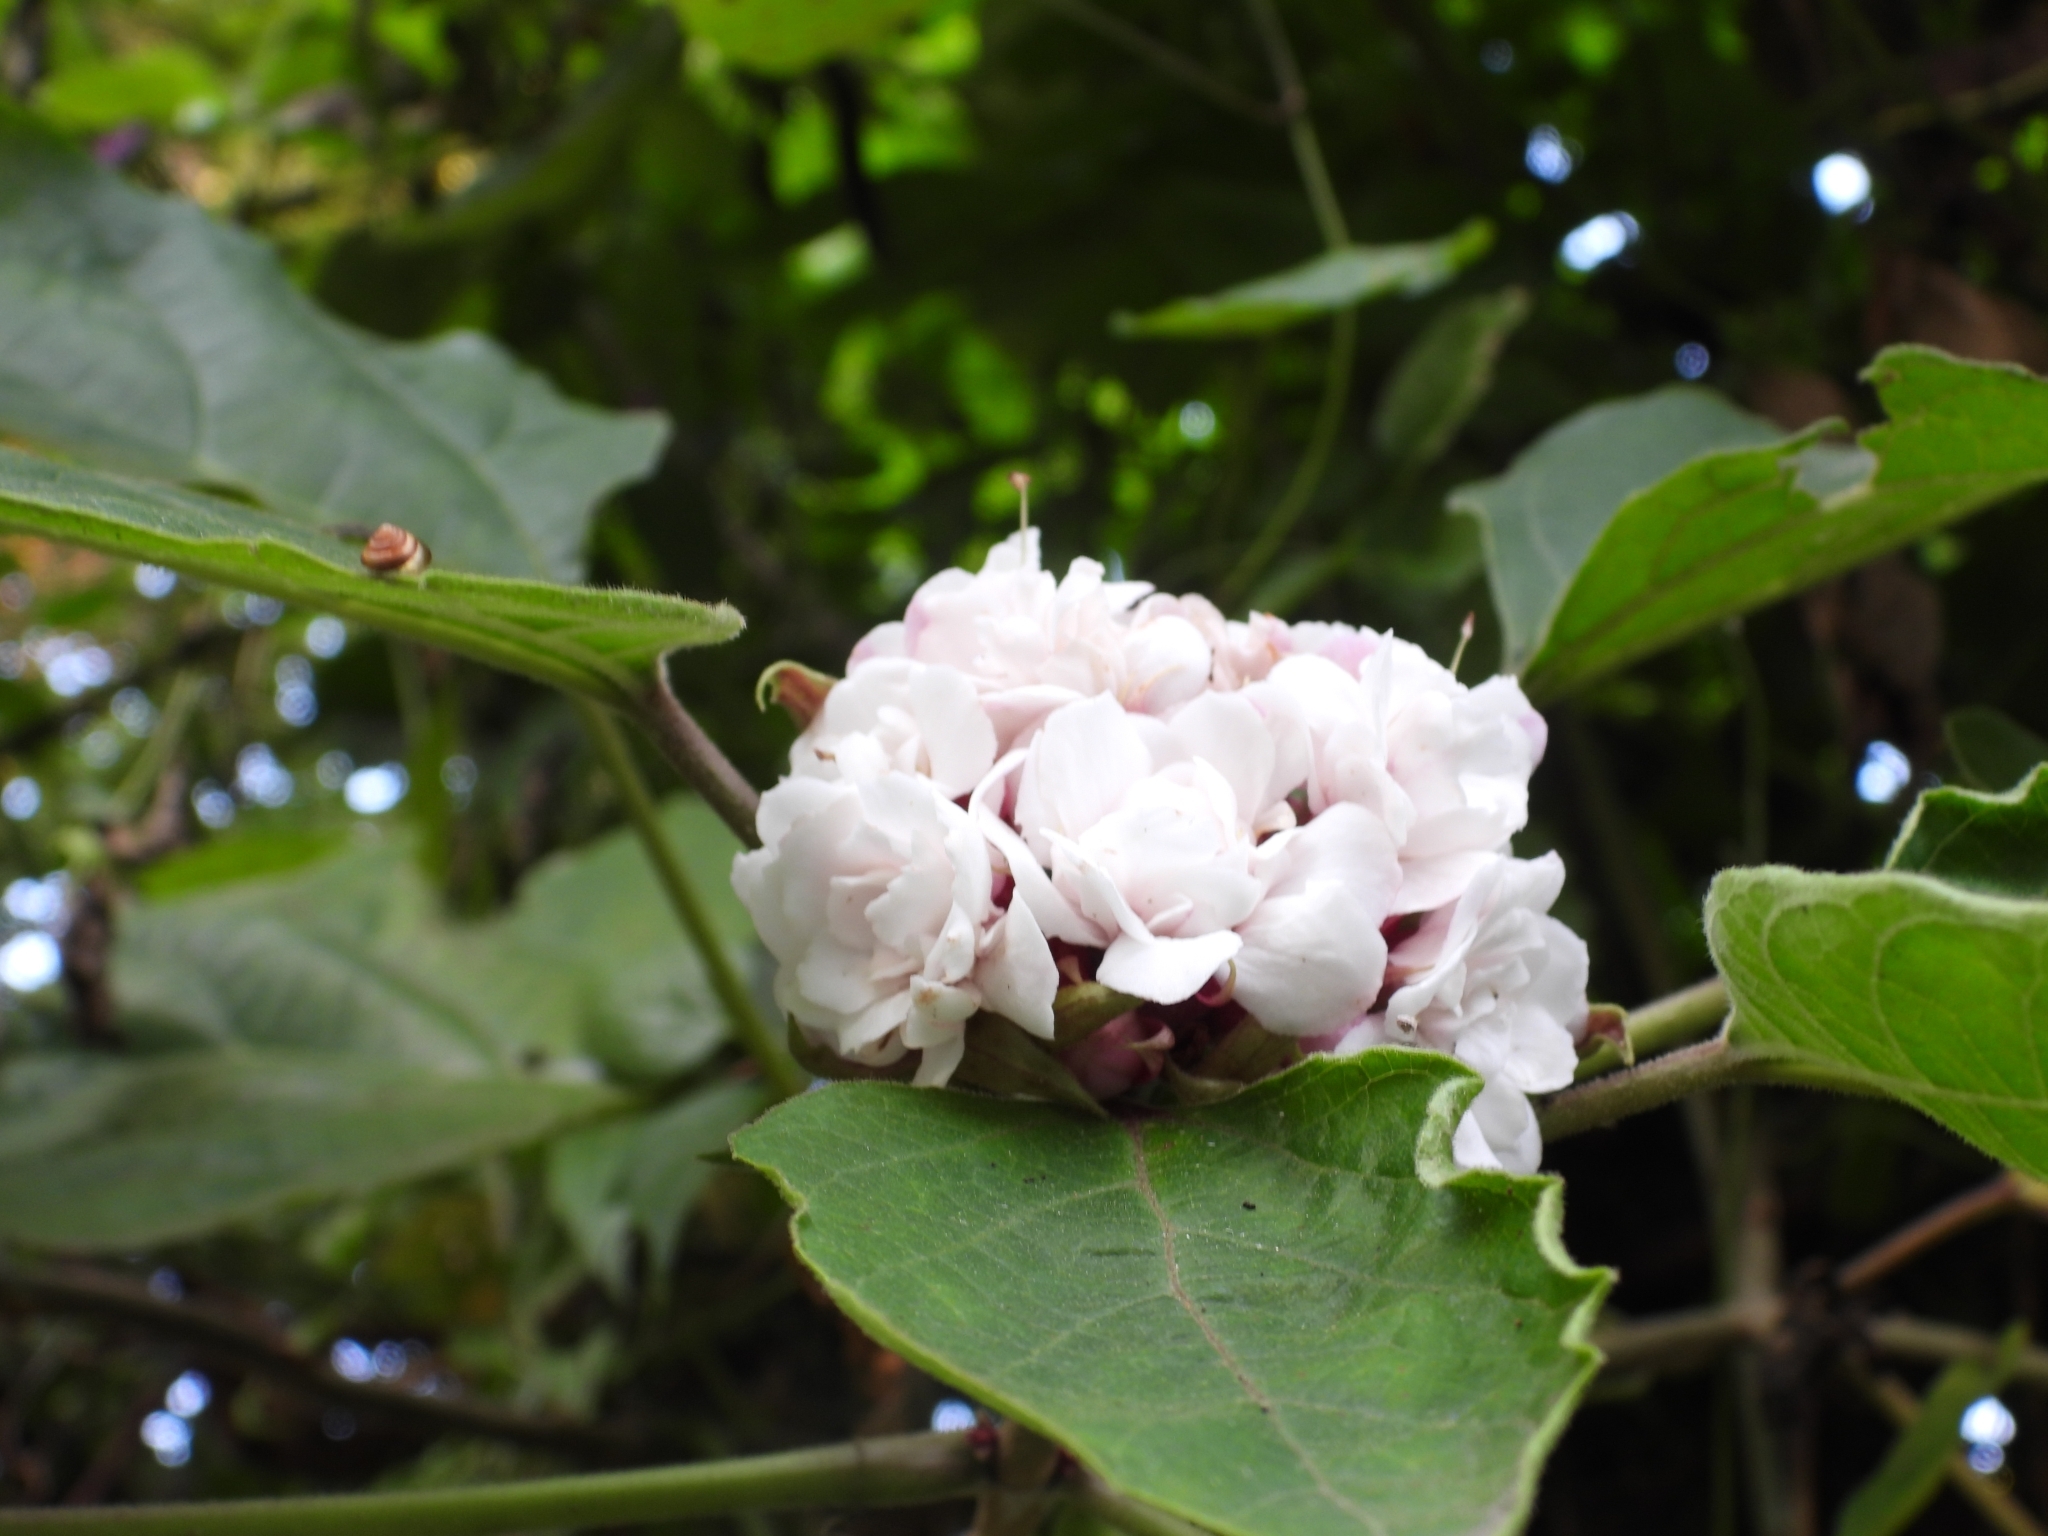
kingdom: Plantae
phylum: Tracheophyta
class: Magnoliopsida
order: Lamiales
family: Lamiaceae
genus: Clerodendrum
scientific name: Clerodendrum chinense
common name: Stickbush
